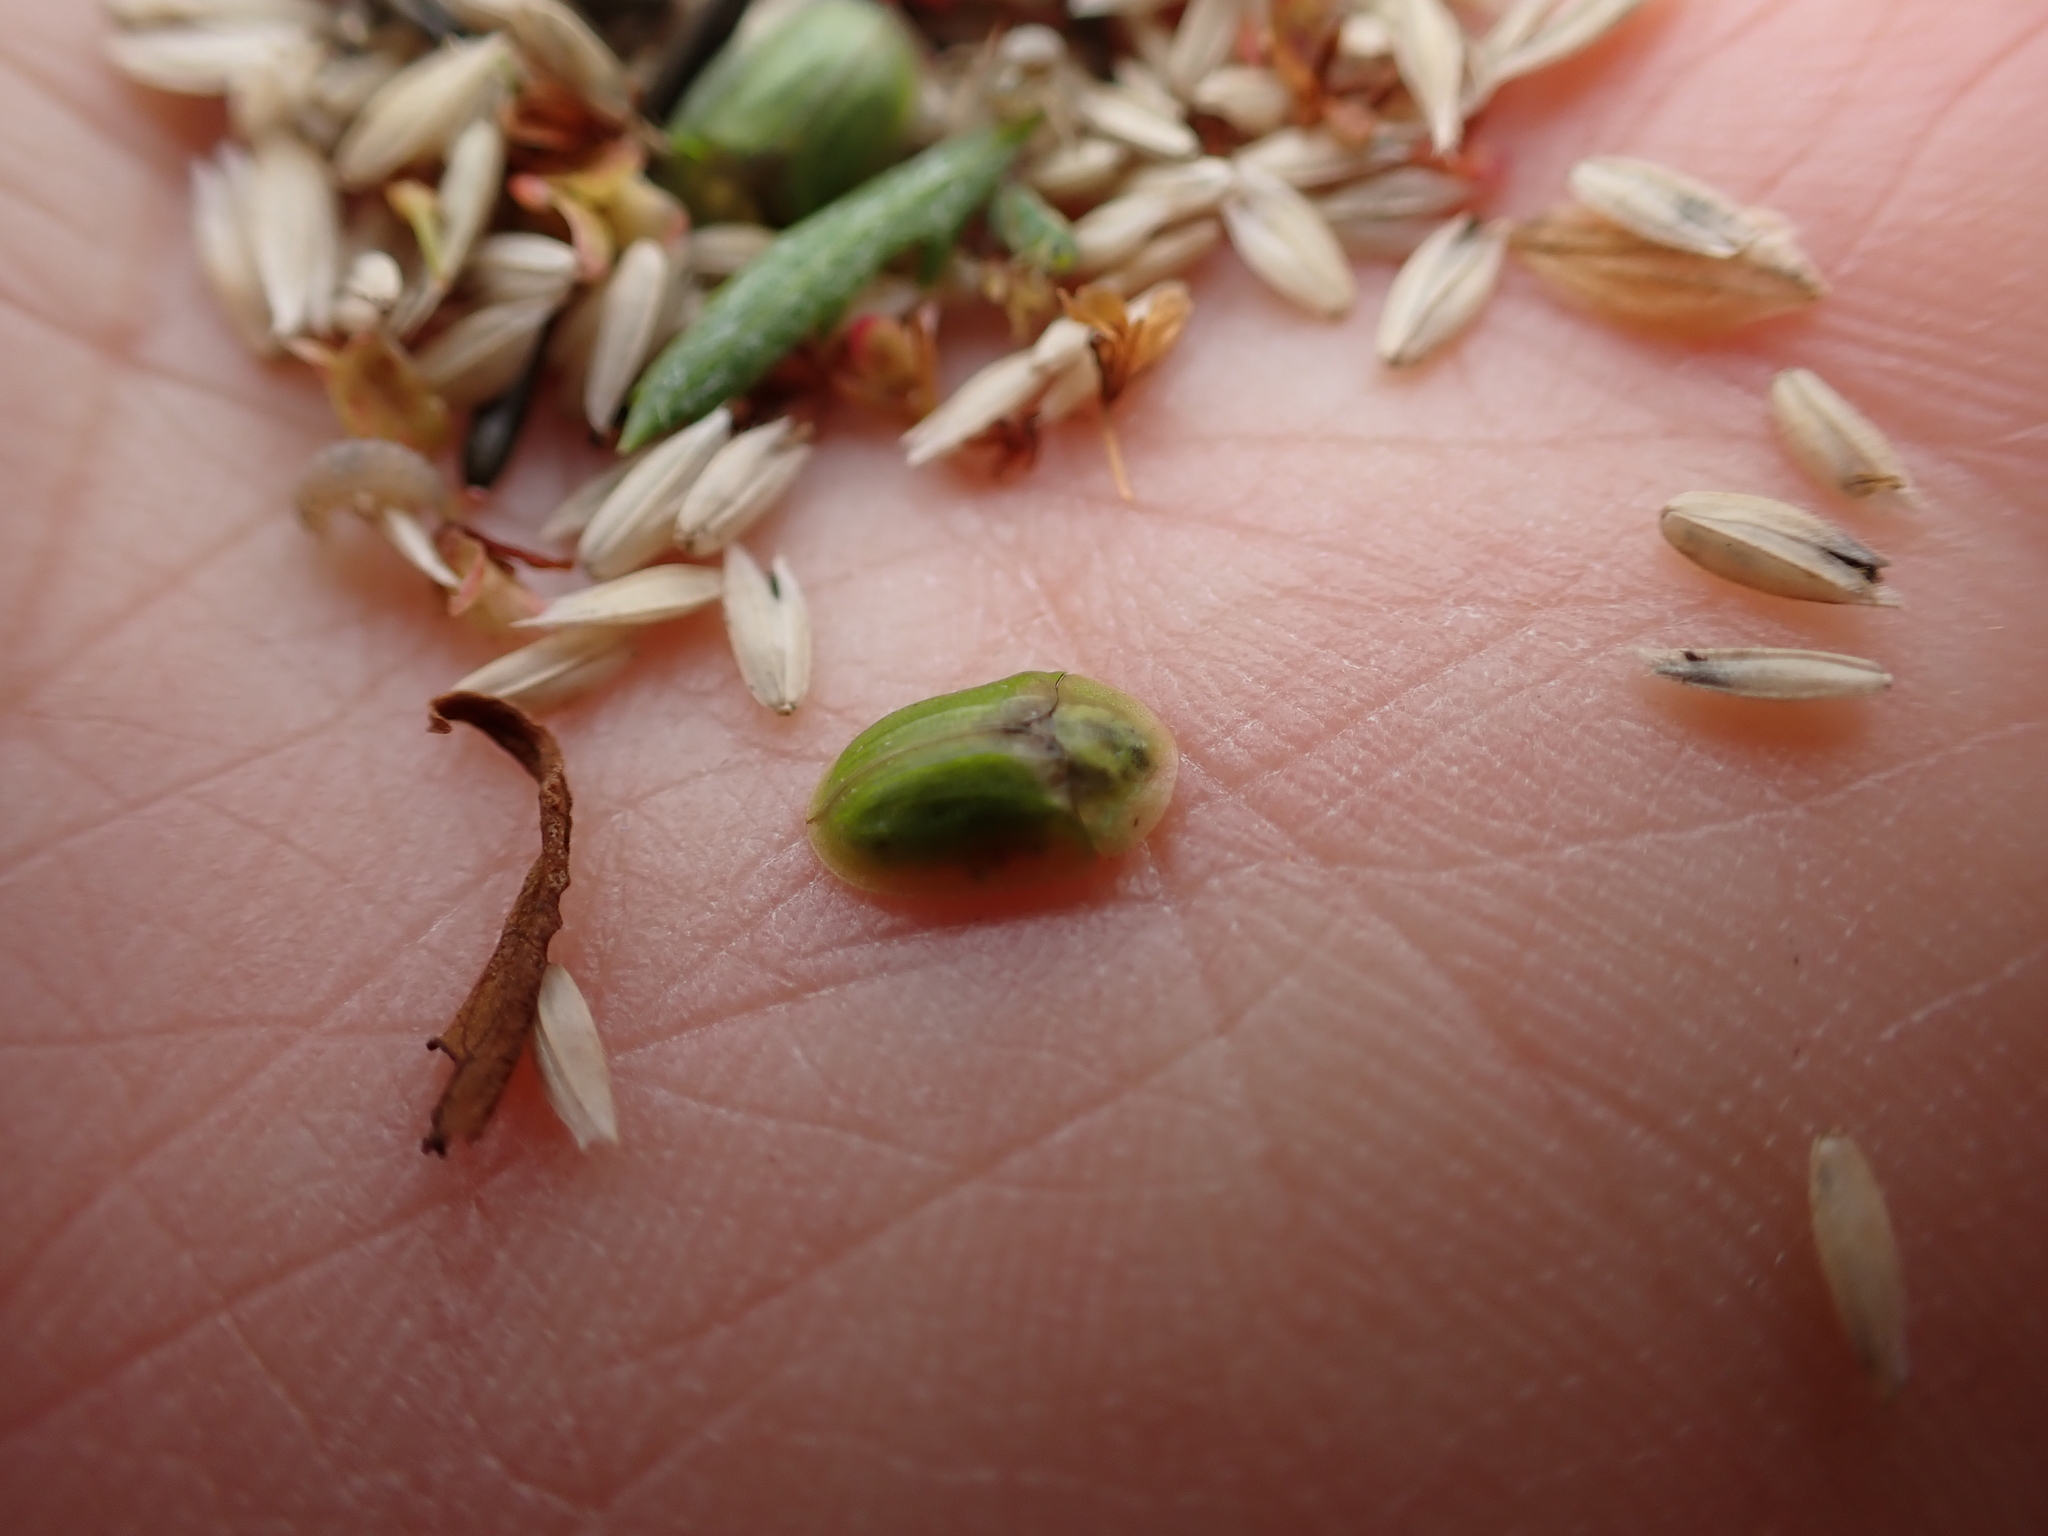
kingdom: Animalia
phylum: Arthropoda
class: Insecta
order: Coleoptera
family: Chrysomelidae
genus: Cassida
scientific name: Cassida sanguinosa
